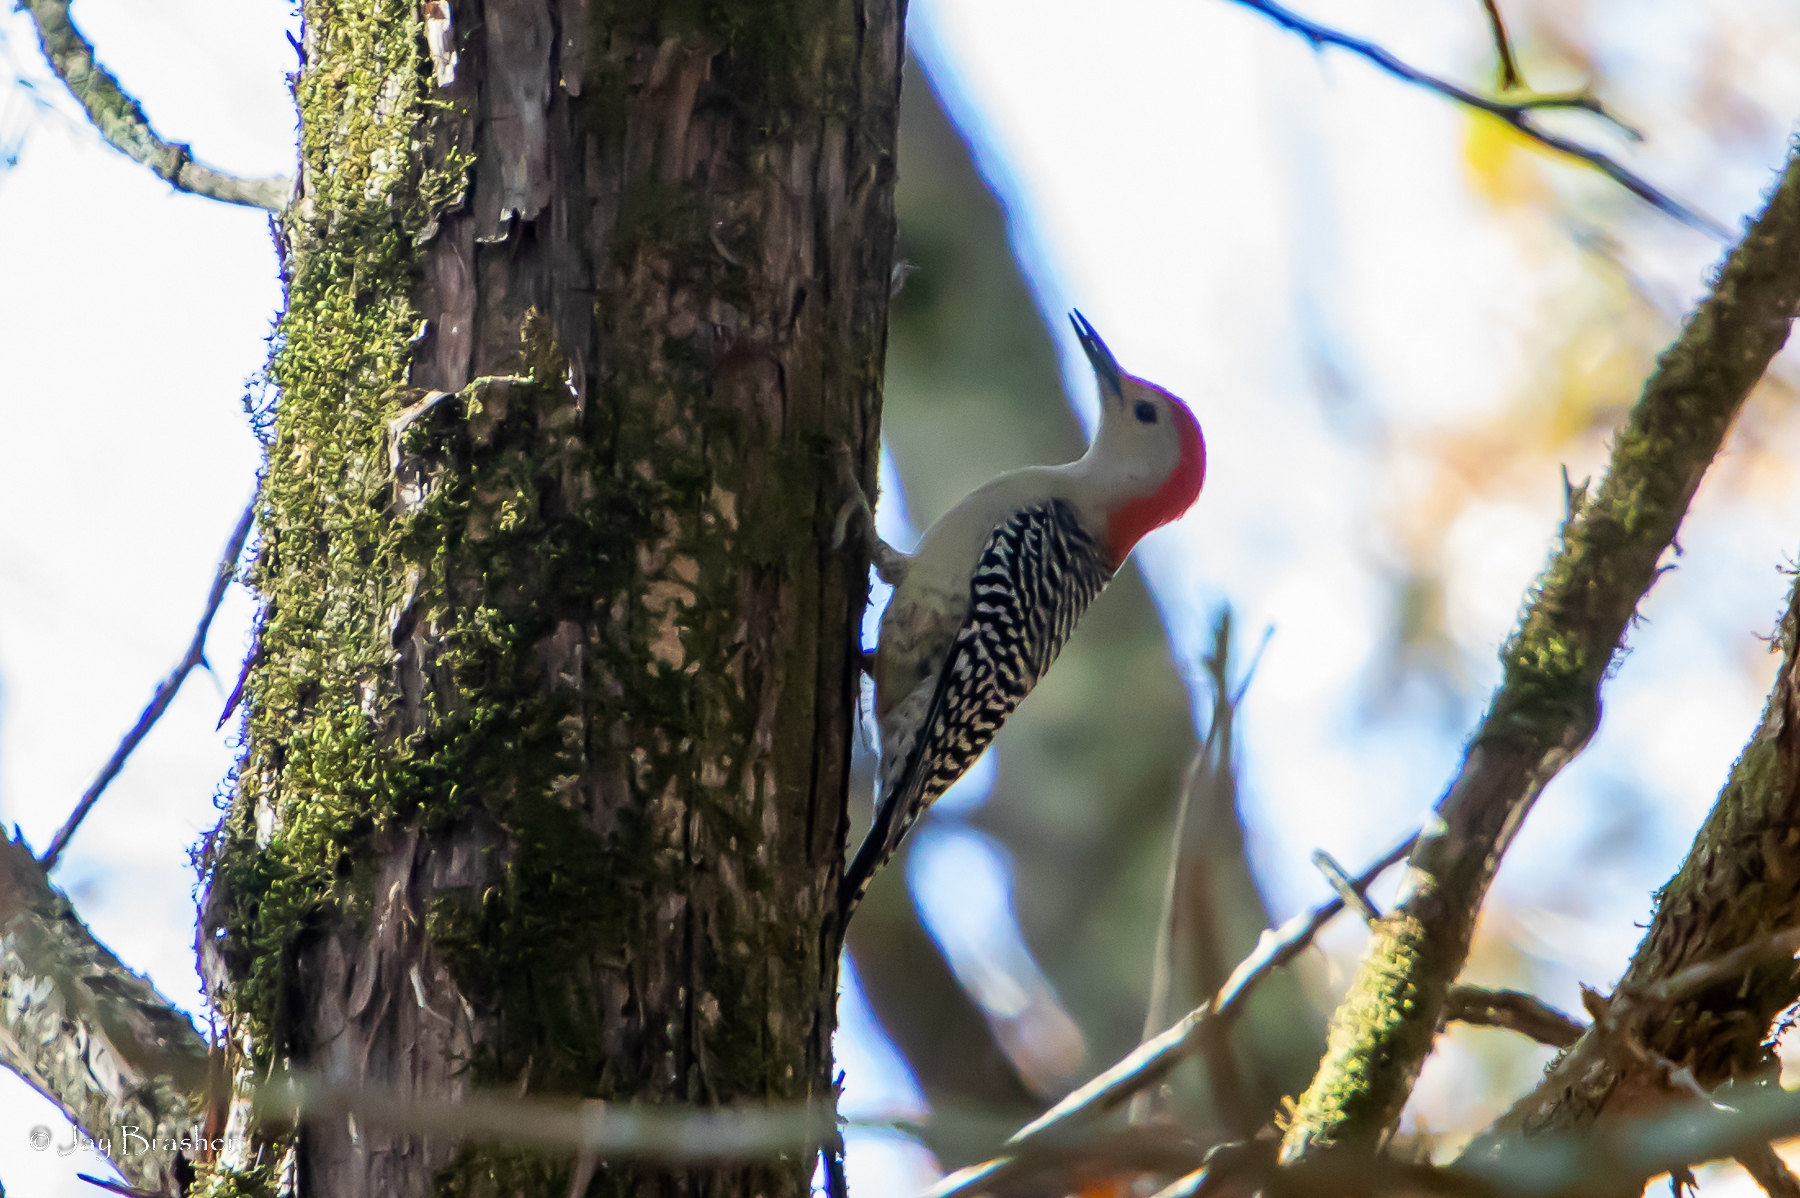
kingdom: Animalia
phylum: Chordata
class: Aves
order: Piciformes
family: Picidae
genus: Melanerpes
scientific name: Melanerpes carolinus
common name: Red-bellied woodpecker
